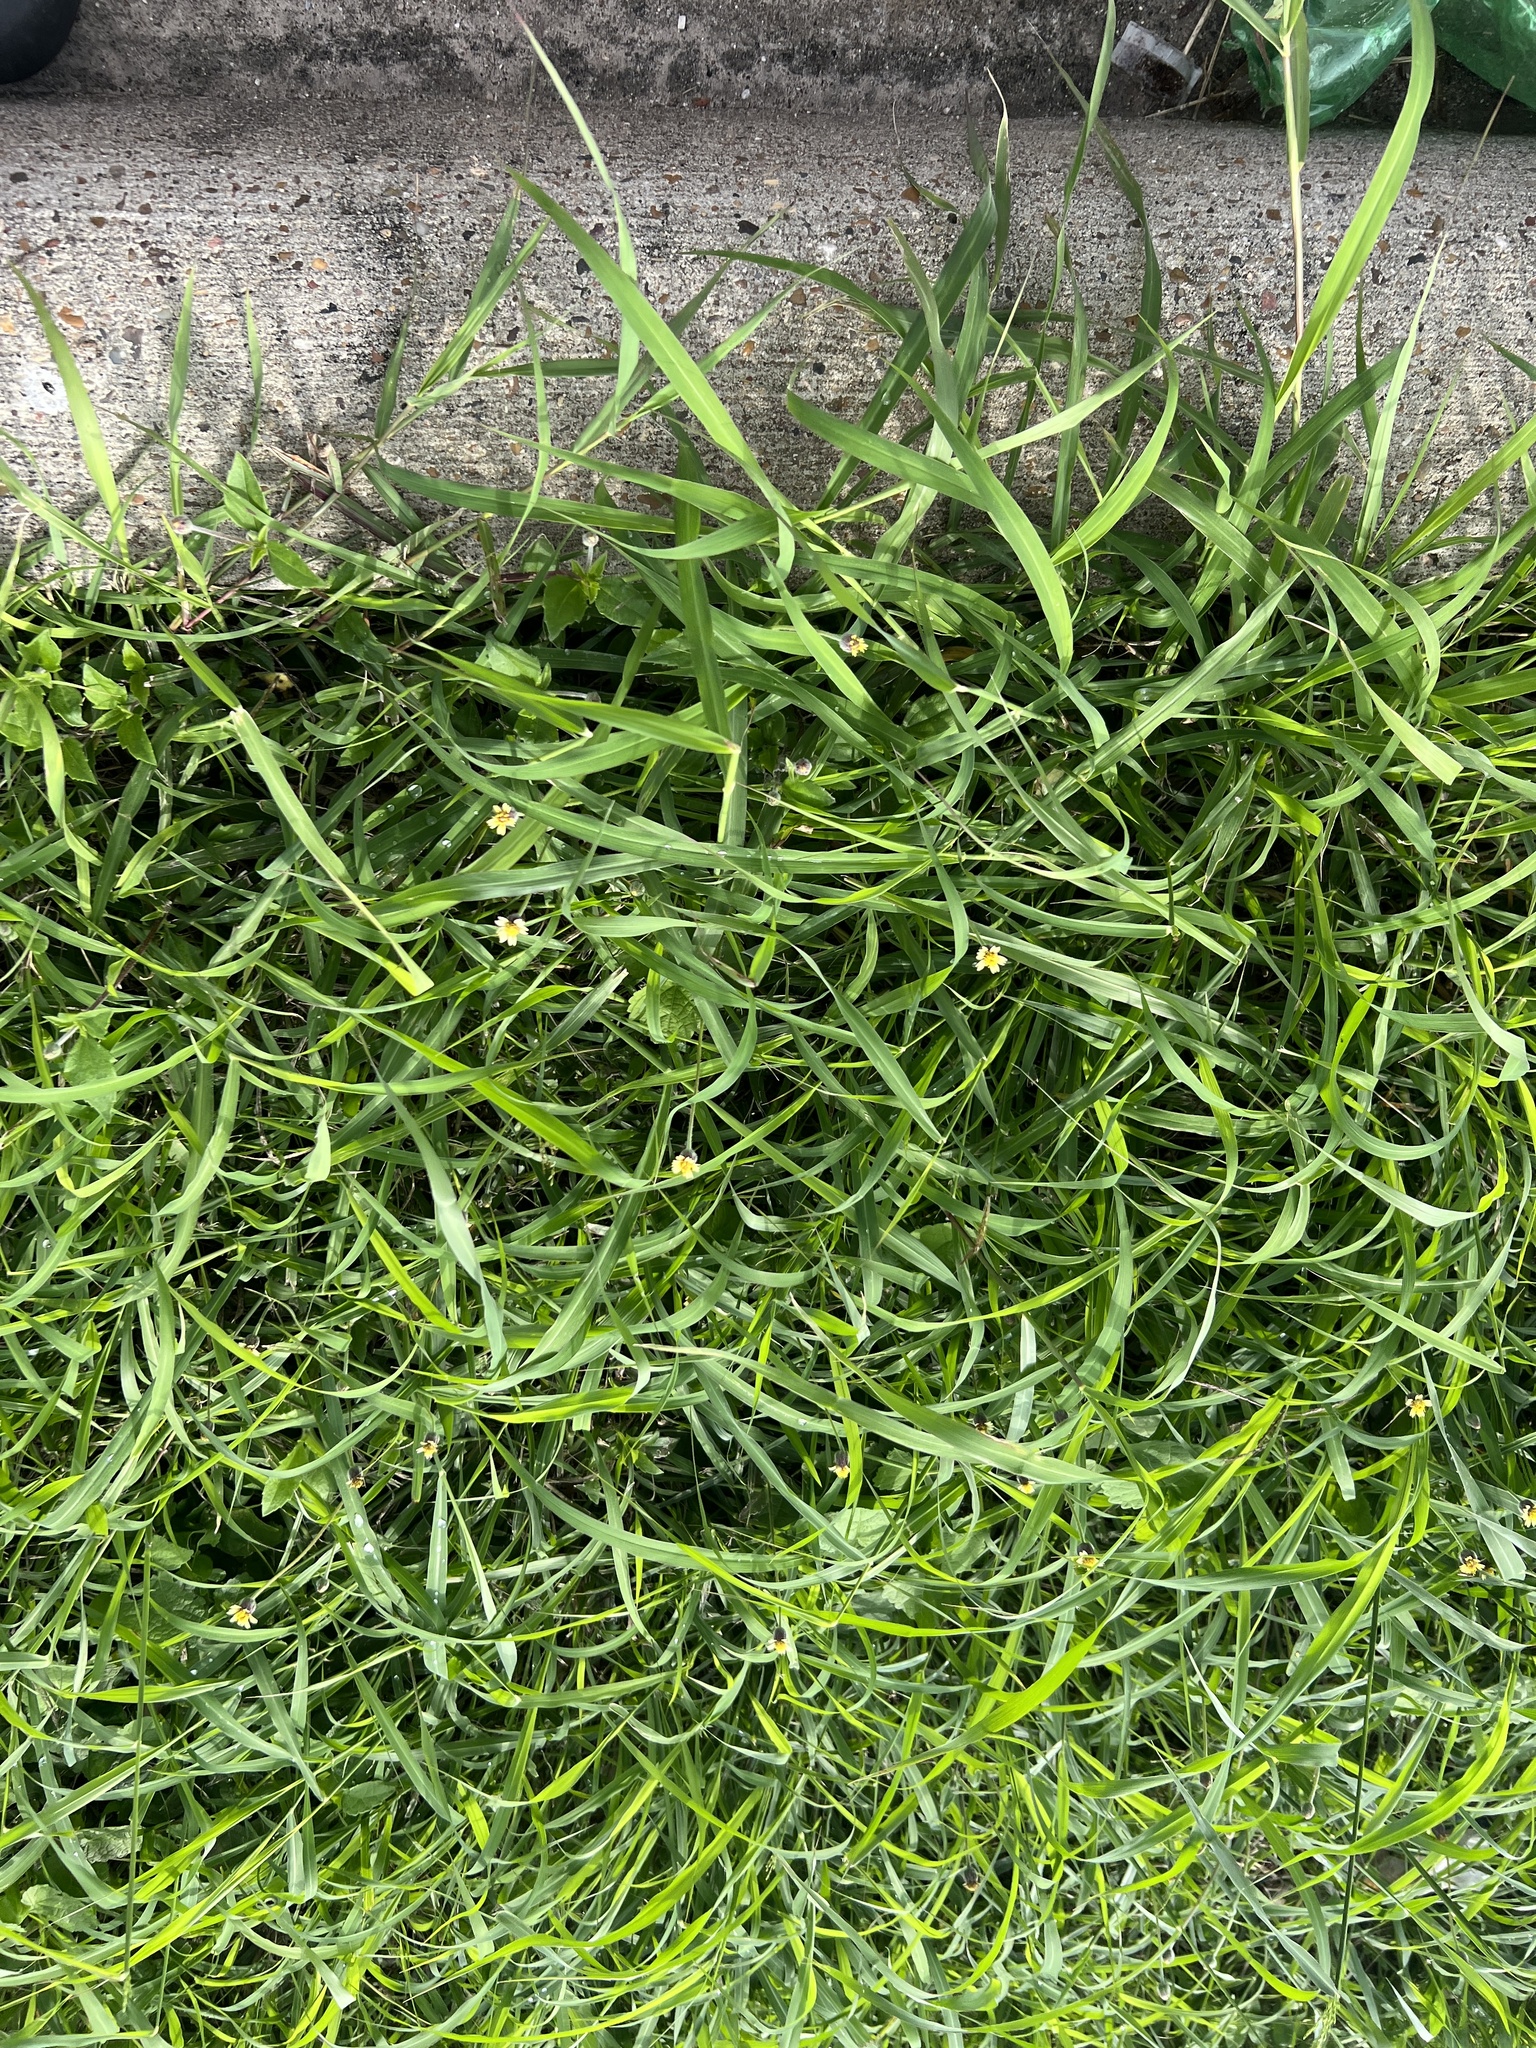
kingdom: Plantae
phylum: Tracheophyta
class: Magnoliopsida
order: Asterales
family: Asteraceae
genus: Tridax
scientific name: Tridax procumbens
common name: Coatbuttons
